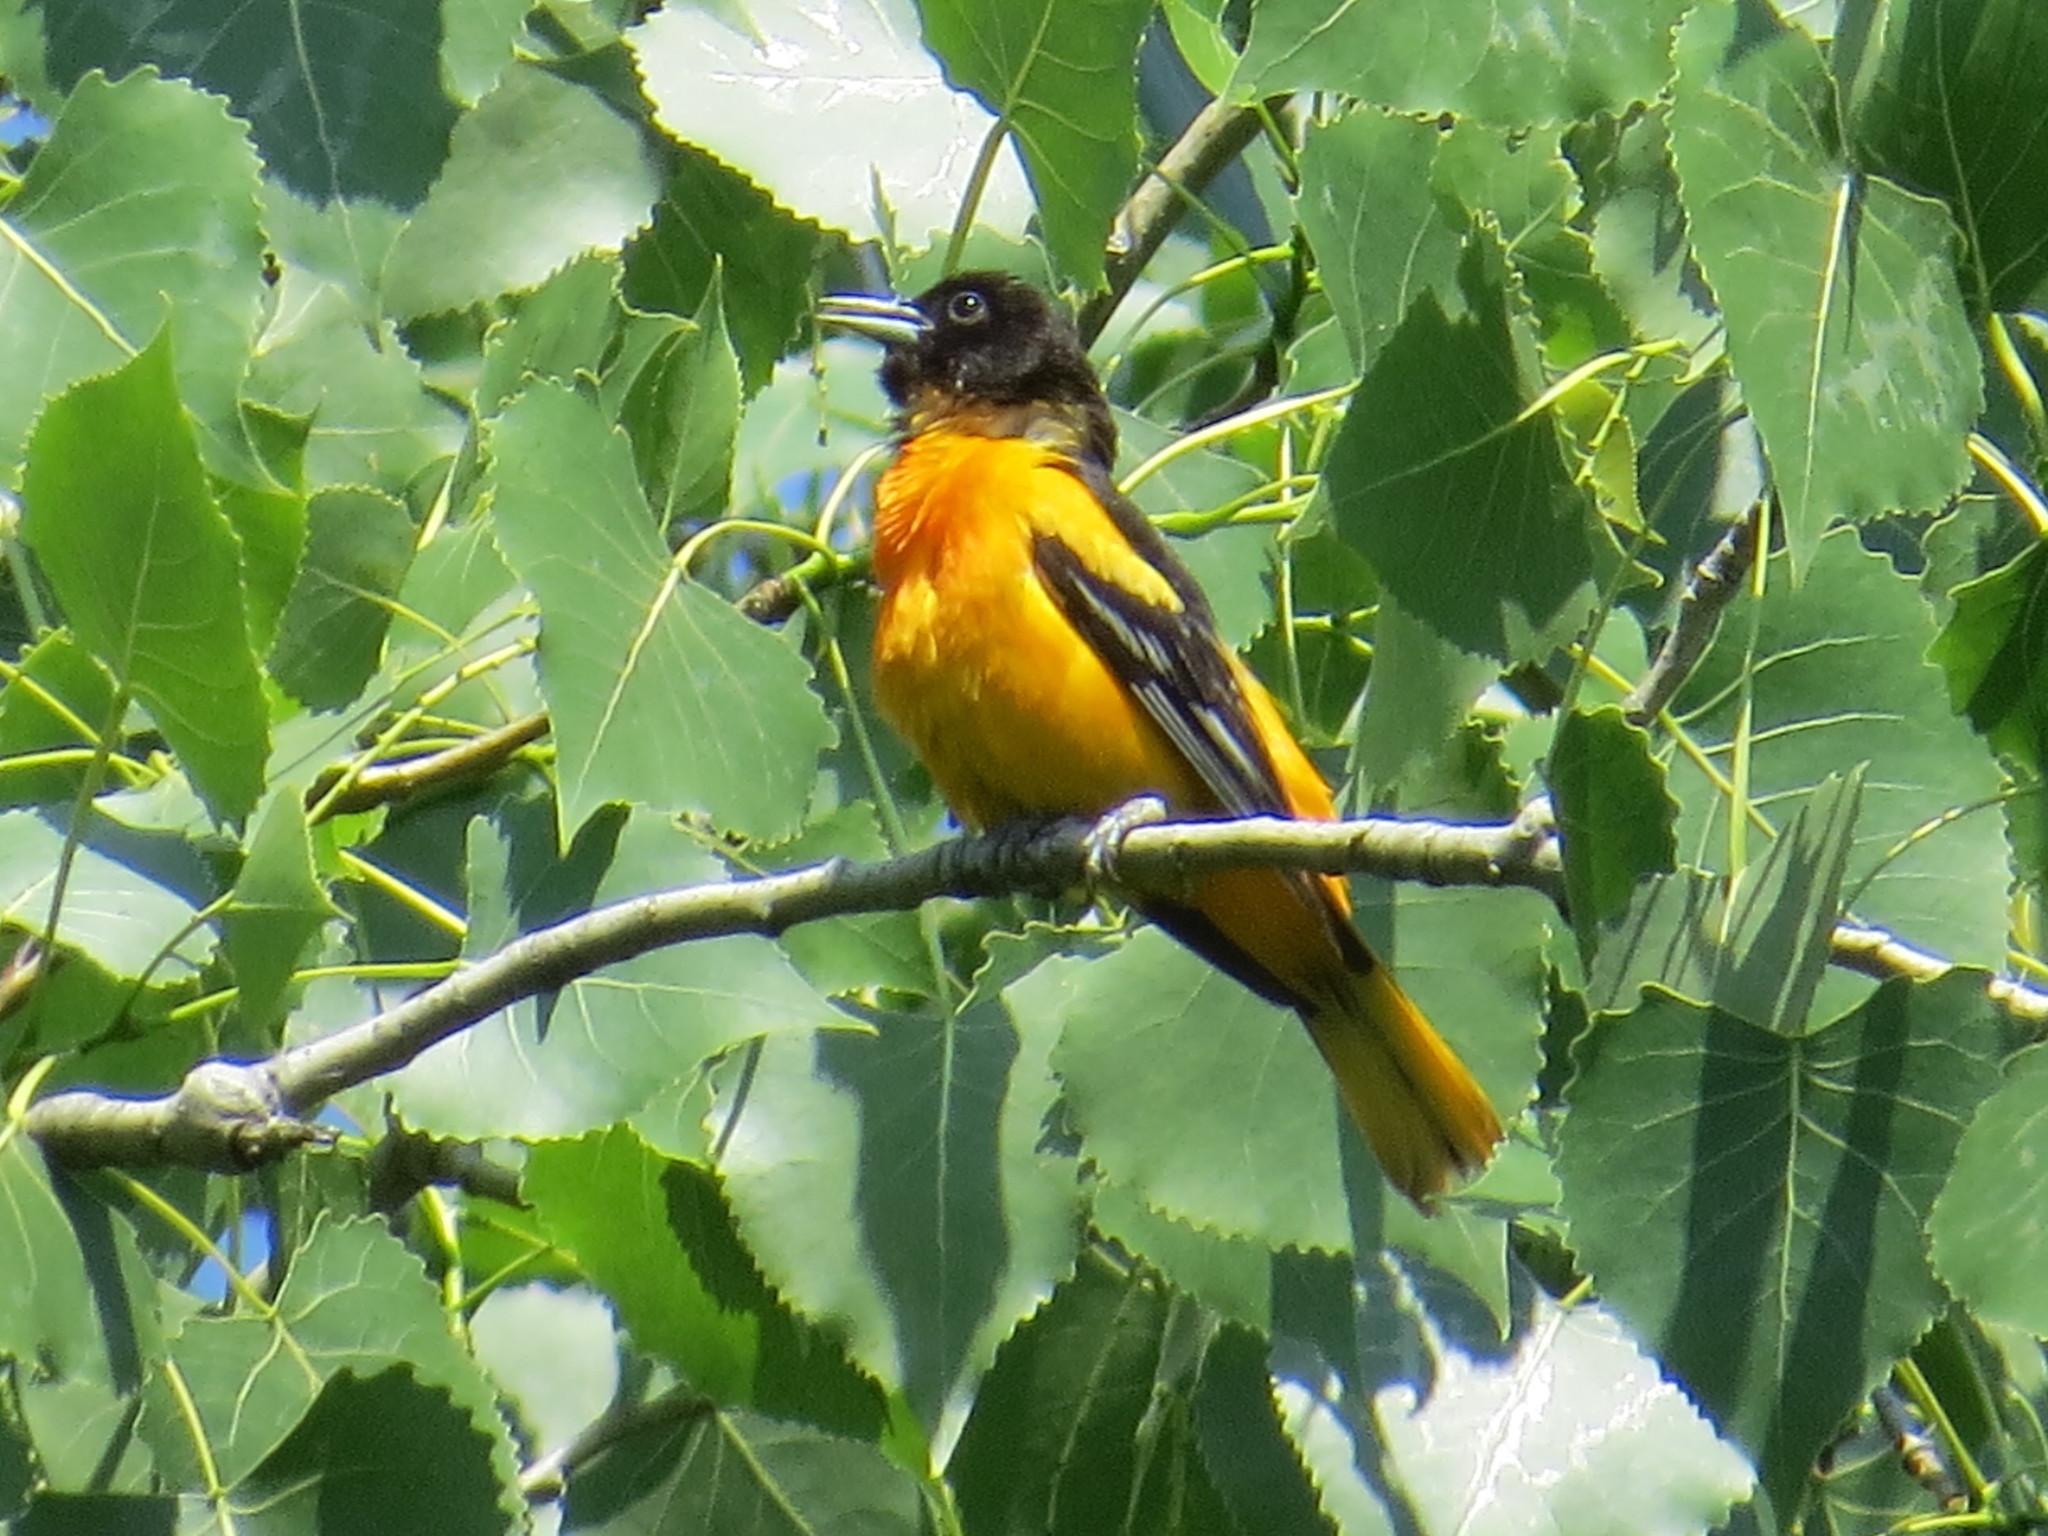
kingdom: Animalia
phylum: Chordata
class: Aves
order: Passeriformes
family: Icteridae
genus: Icterus
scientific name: Icterus galbula
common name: Baltimore oriole
